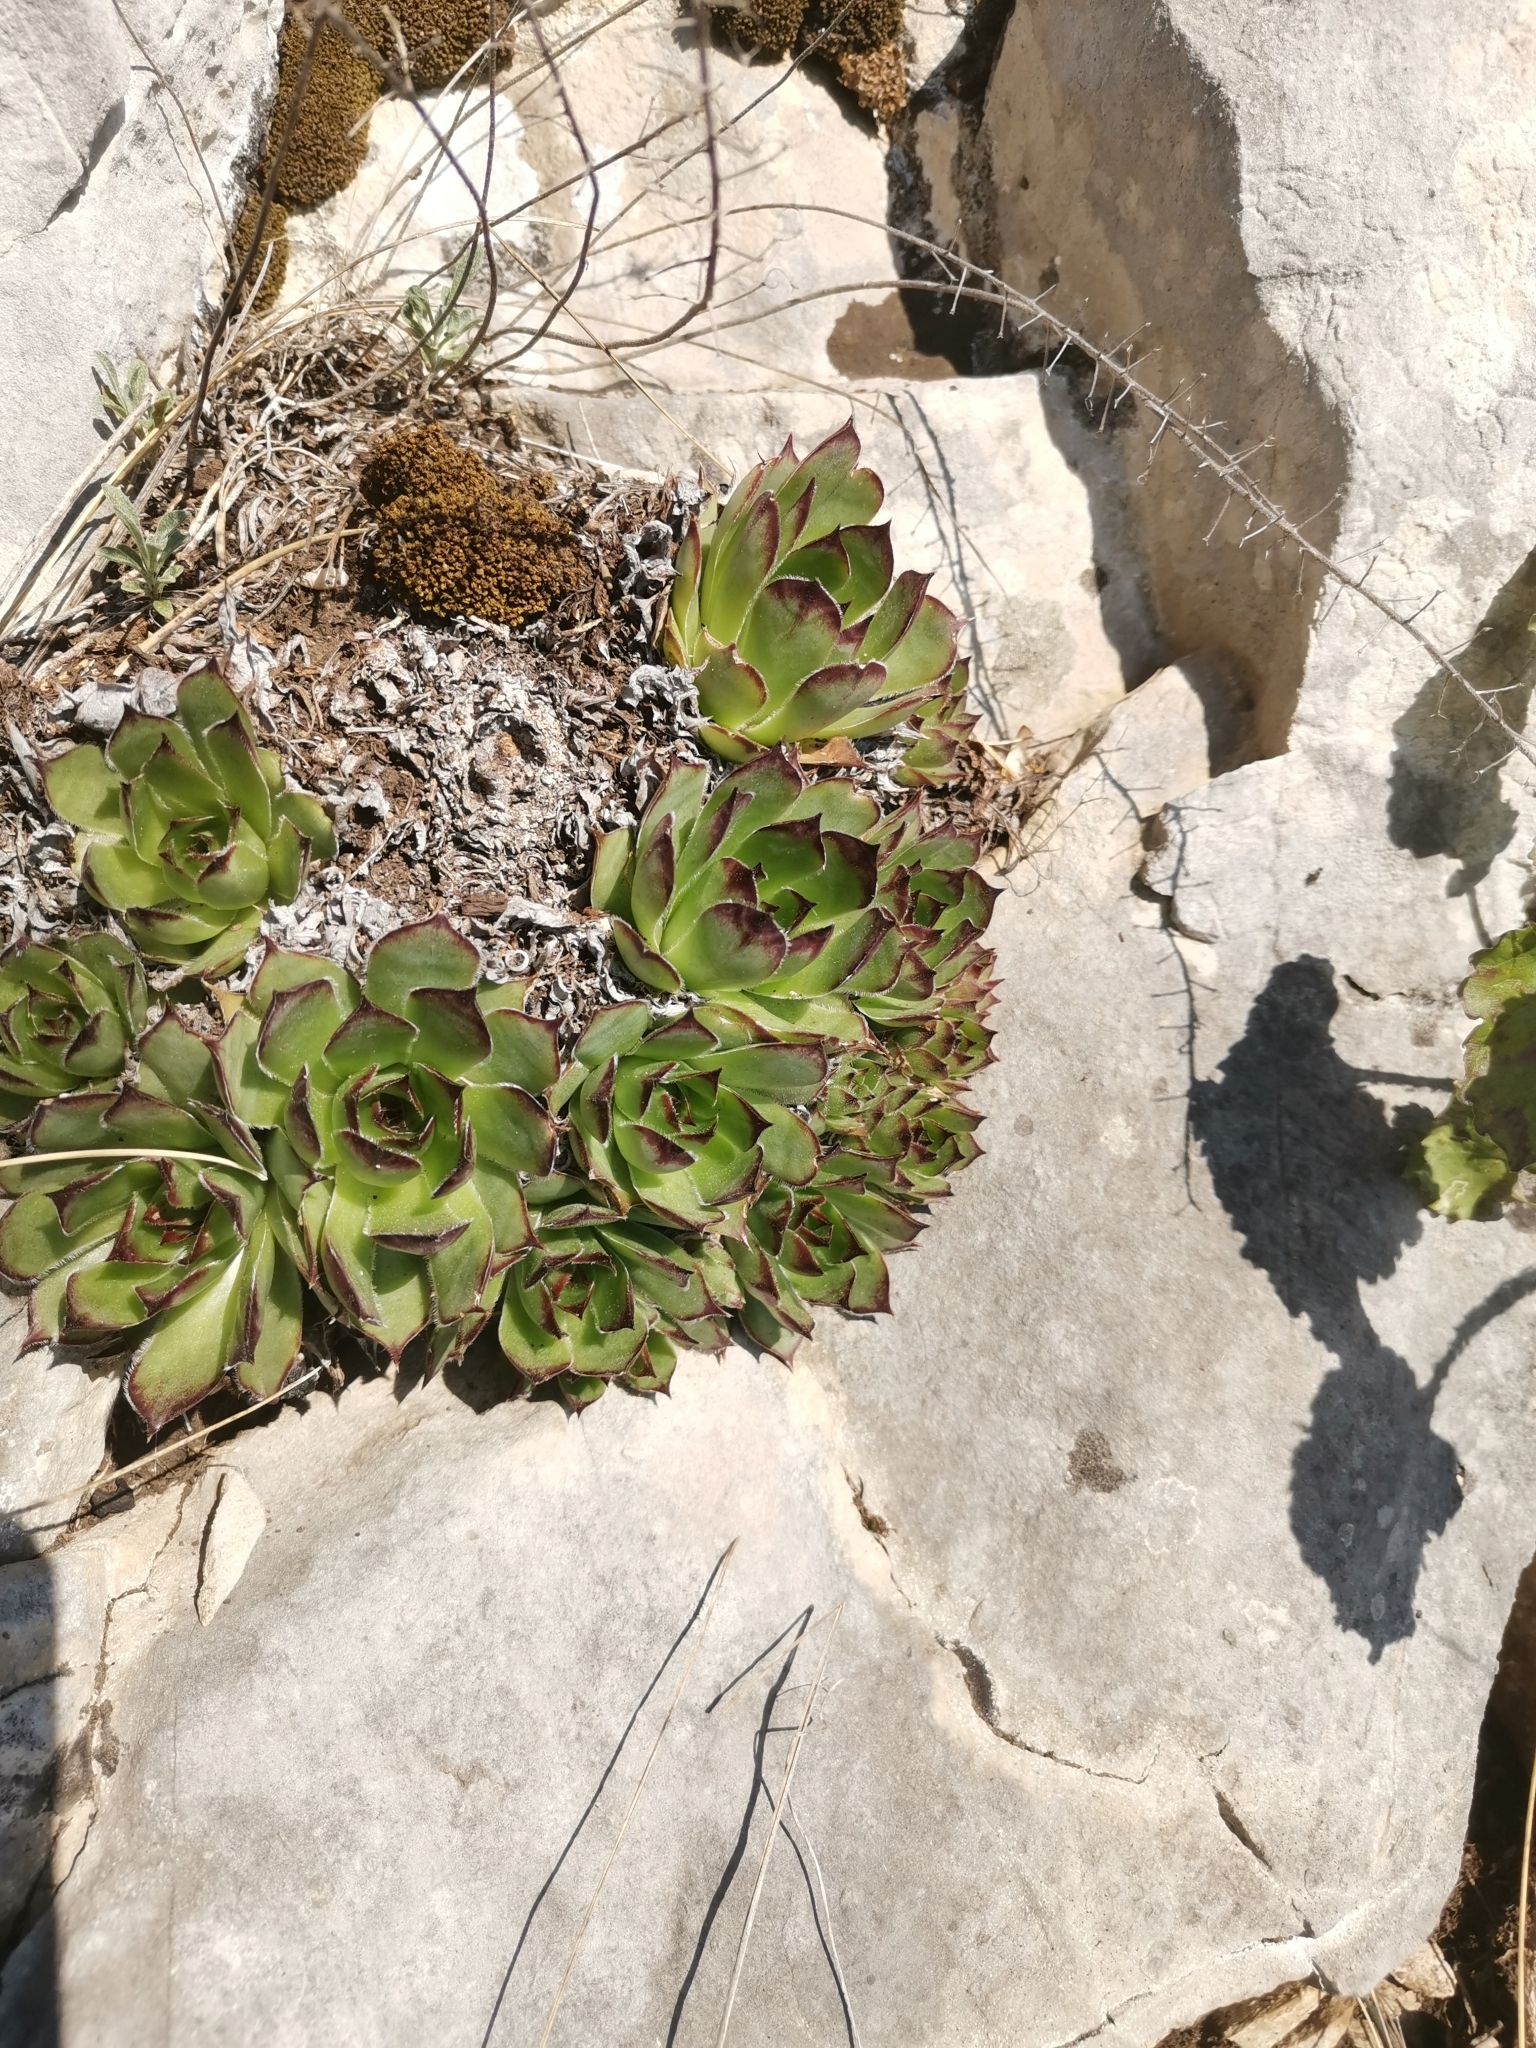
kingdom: Plantae
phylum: Tracheophyta
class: Magnoliopsida
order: Saxifragales
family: Crassulaceae
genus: Sempervivum
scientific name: Sempervivum tectorum
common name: House-leek
